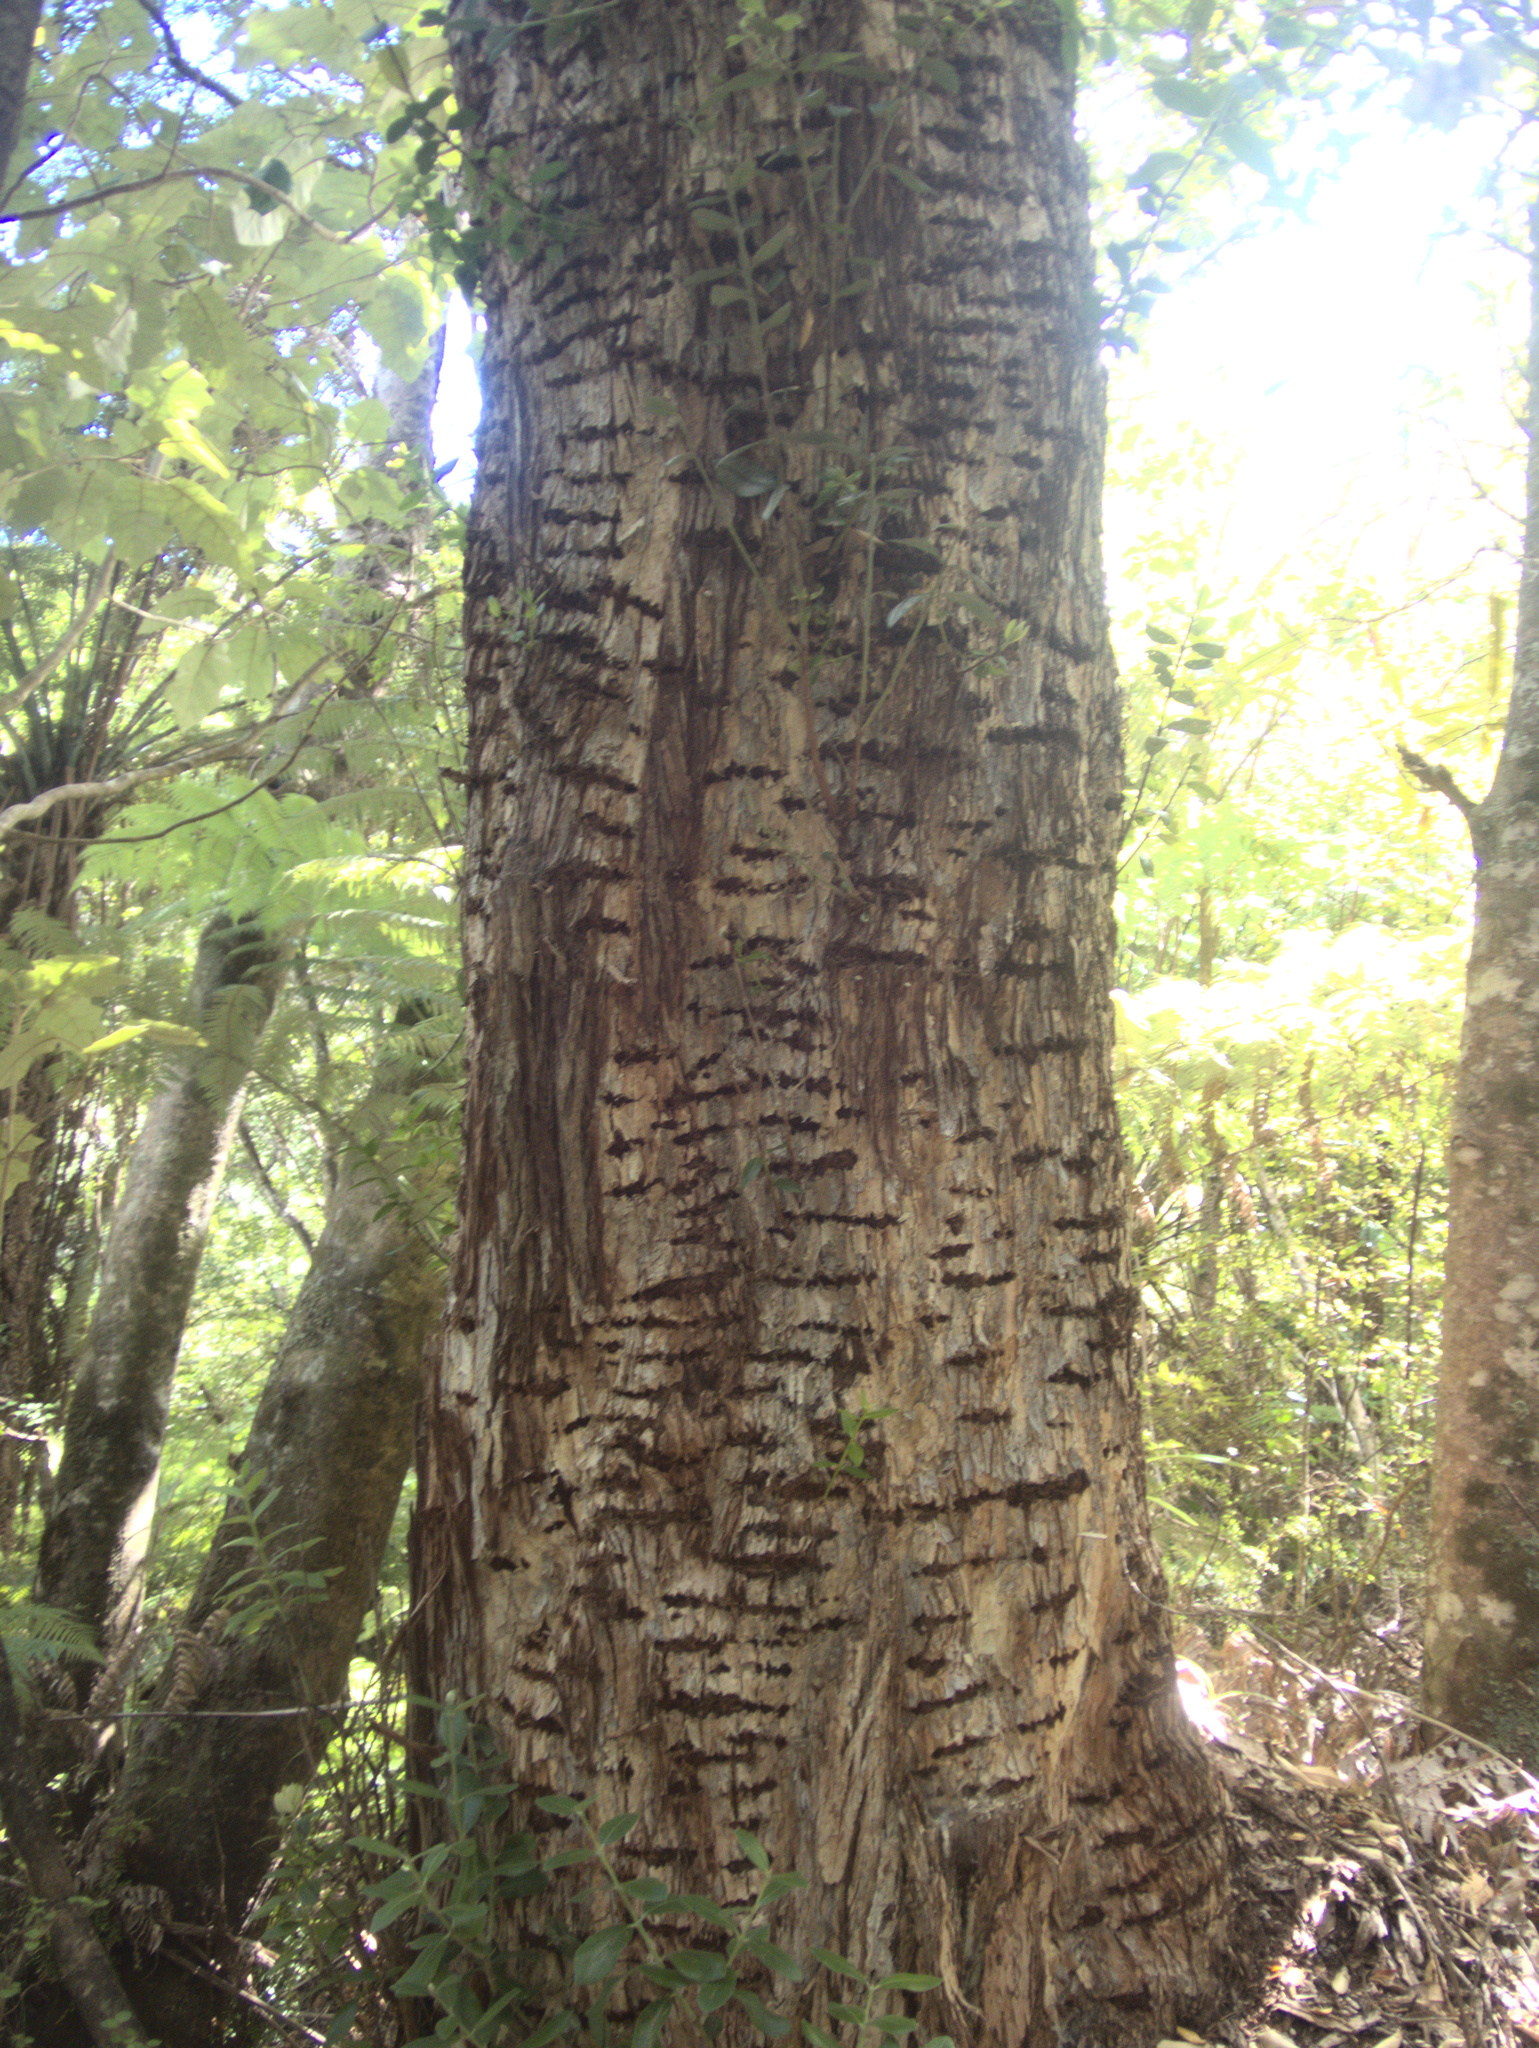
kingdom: Animalia
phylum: Chordata
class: Aves
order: Psittaciformes
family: Psittacidae
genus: Nestor
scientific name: Nestor meridionalis
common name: New zealand kaka
